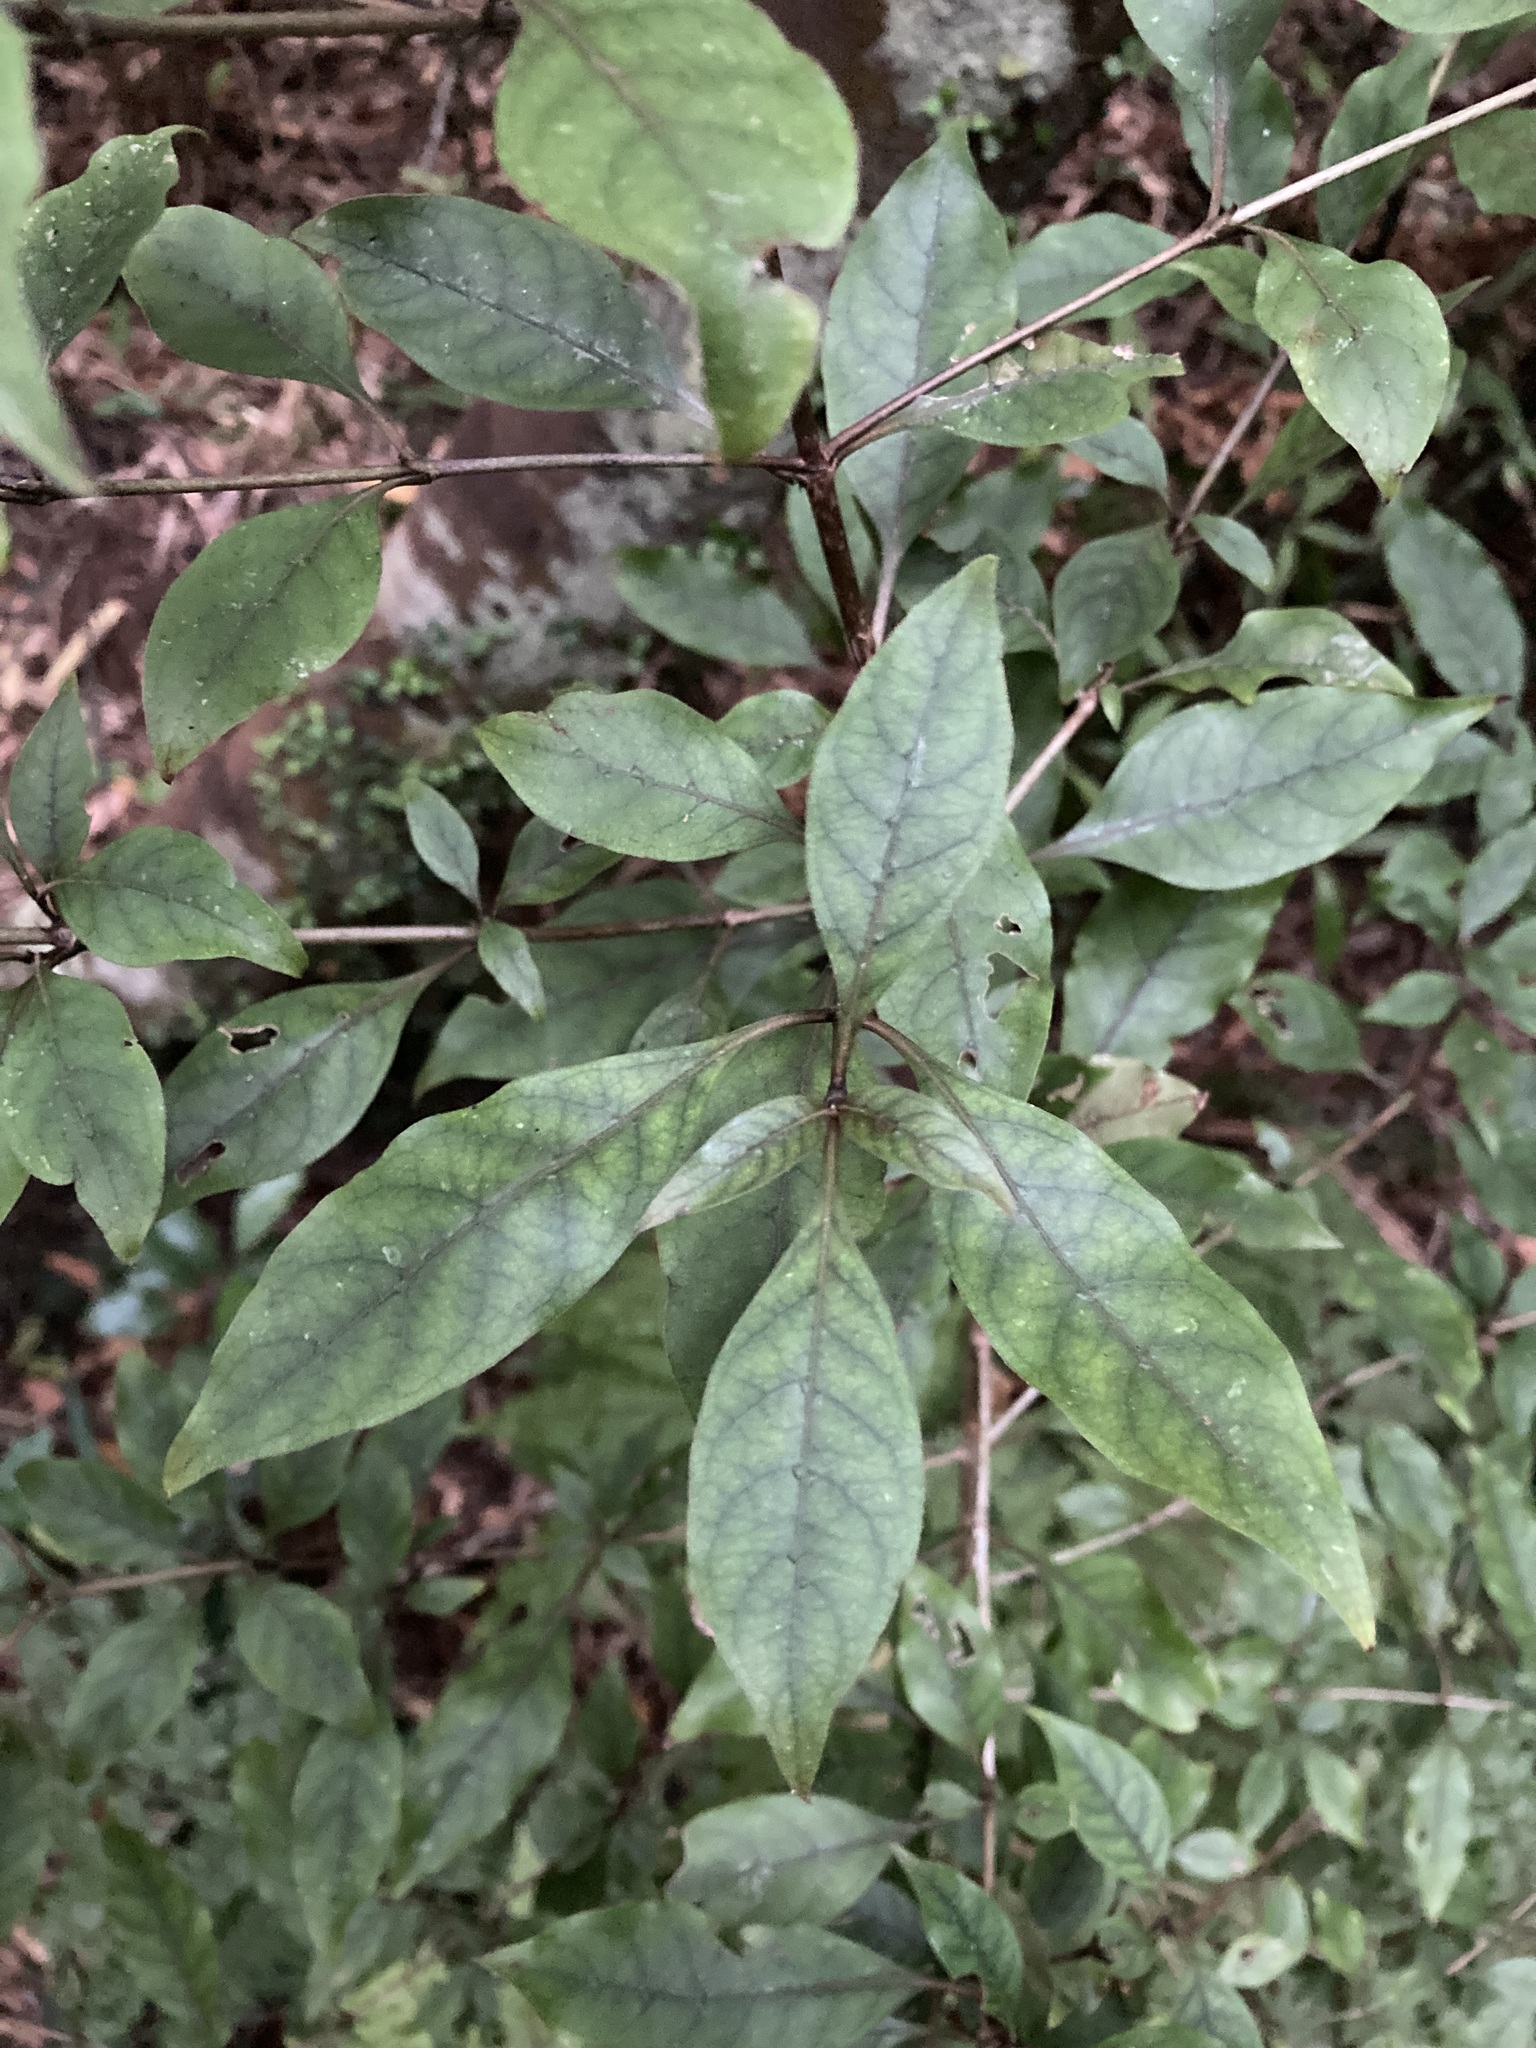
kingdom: Plantae
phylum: Tracheophyta
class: Magnoliopsida
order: Gentianales
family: Rubiaceae
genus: Coprosma
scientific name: Coprosma tenuifolia
